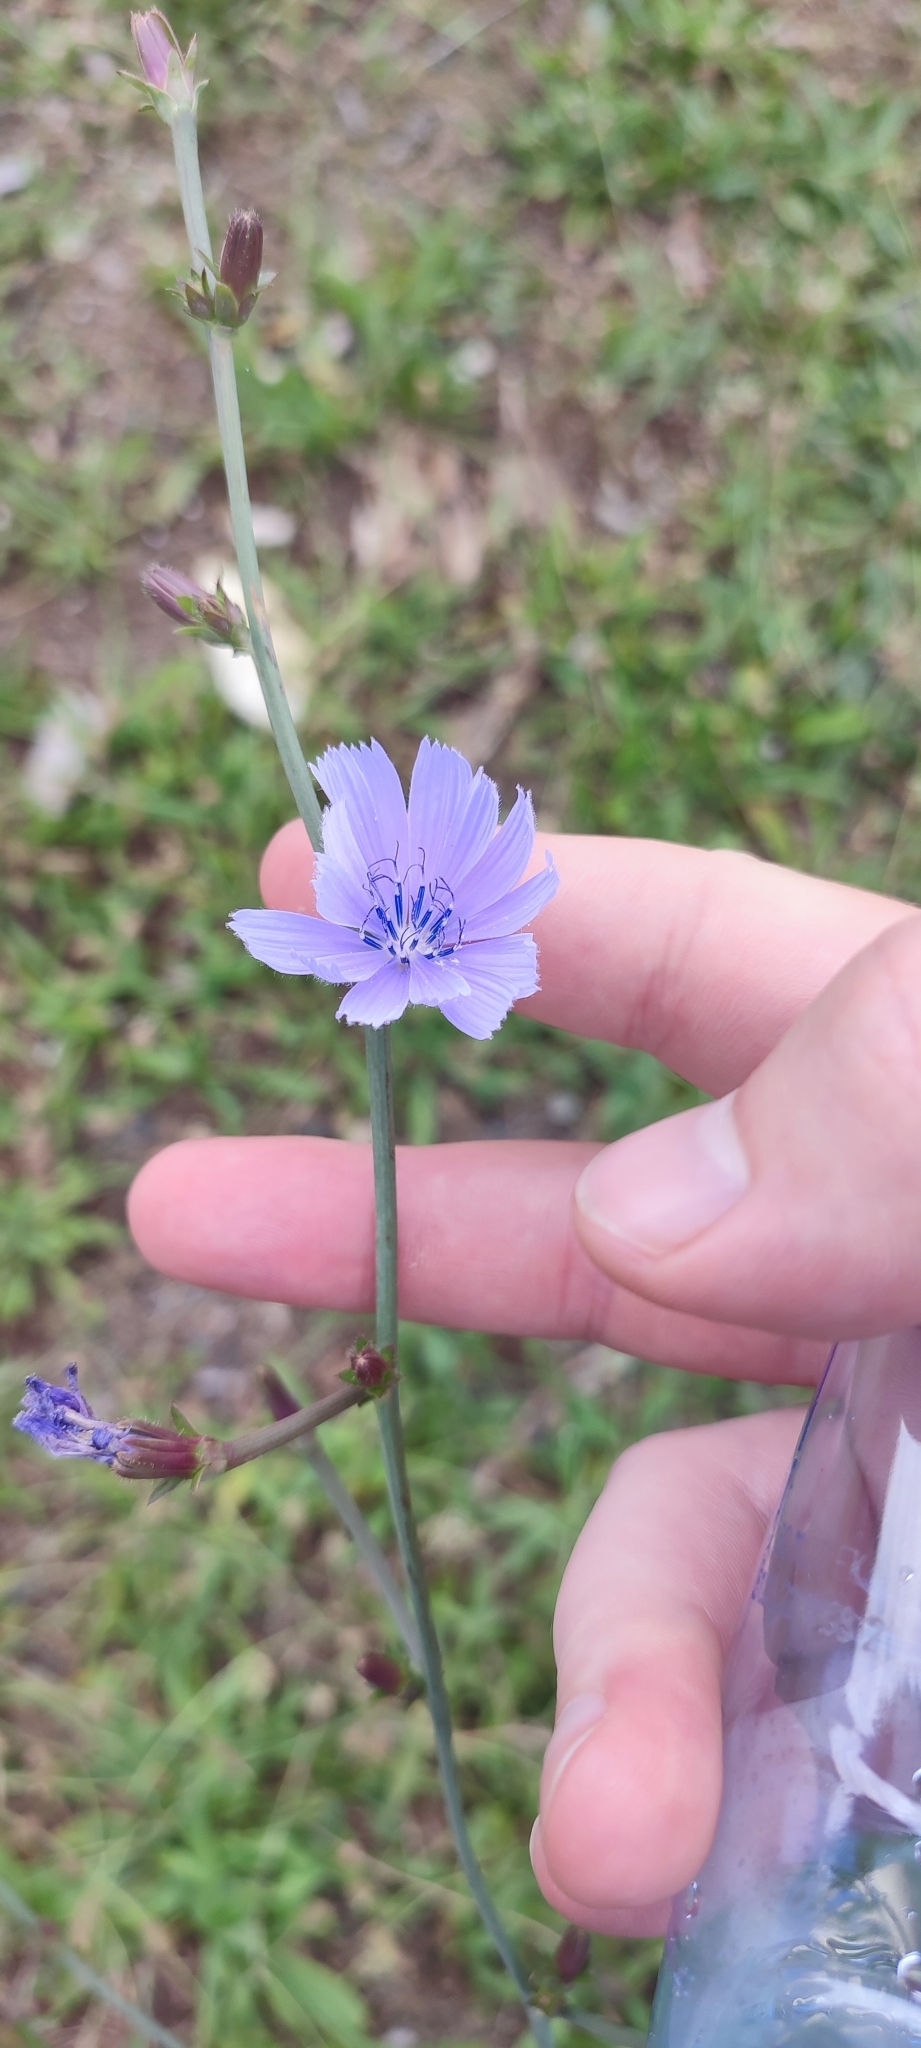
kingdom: Plantae
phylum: Tracheophyta
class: Magnoliopsida
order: Asterales
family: Asteraceae
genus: Cichorium
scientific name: Cichorium intybus
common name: Chicory
